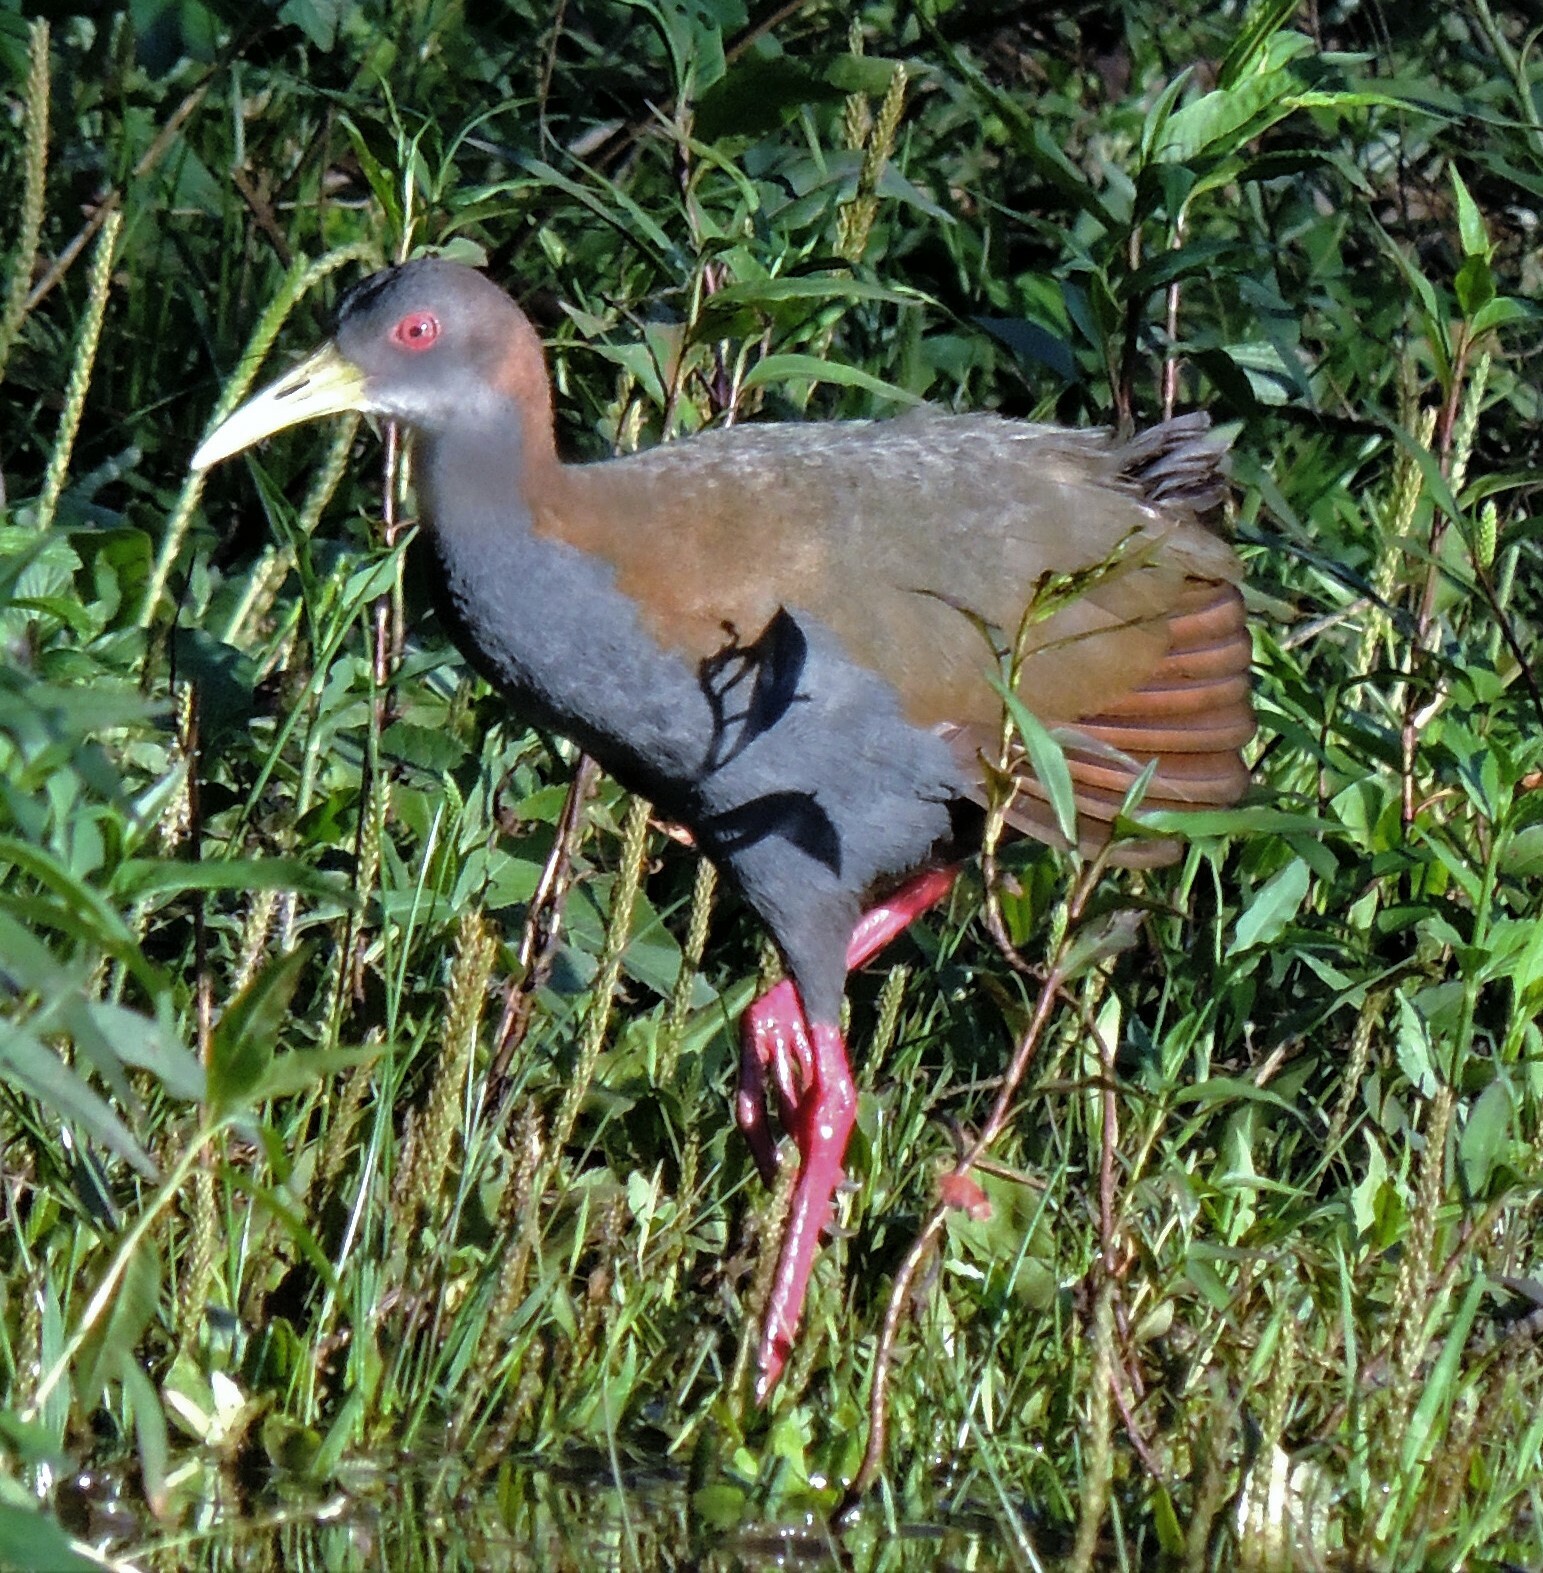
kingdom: Animalia
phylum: Chordata
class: Aves
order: Gruiformes
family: Rallidae
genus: Aramides
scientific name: Aramides saracura
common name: Slaty-breasted wood rail
